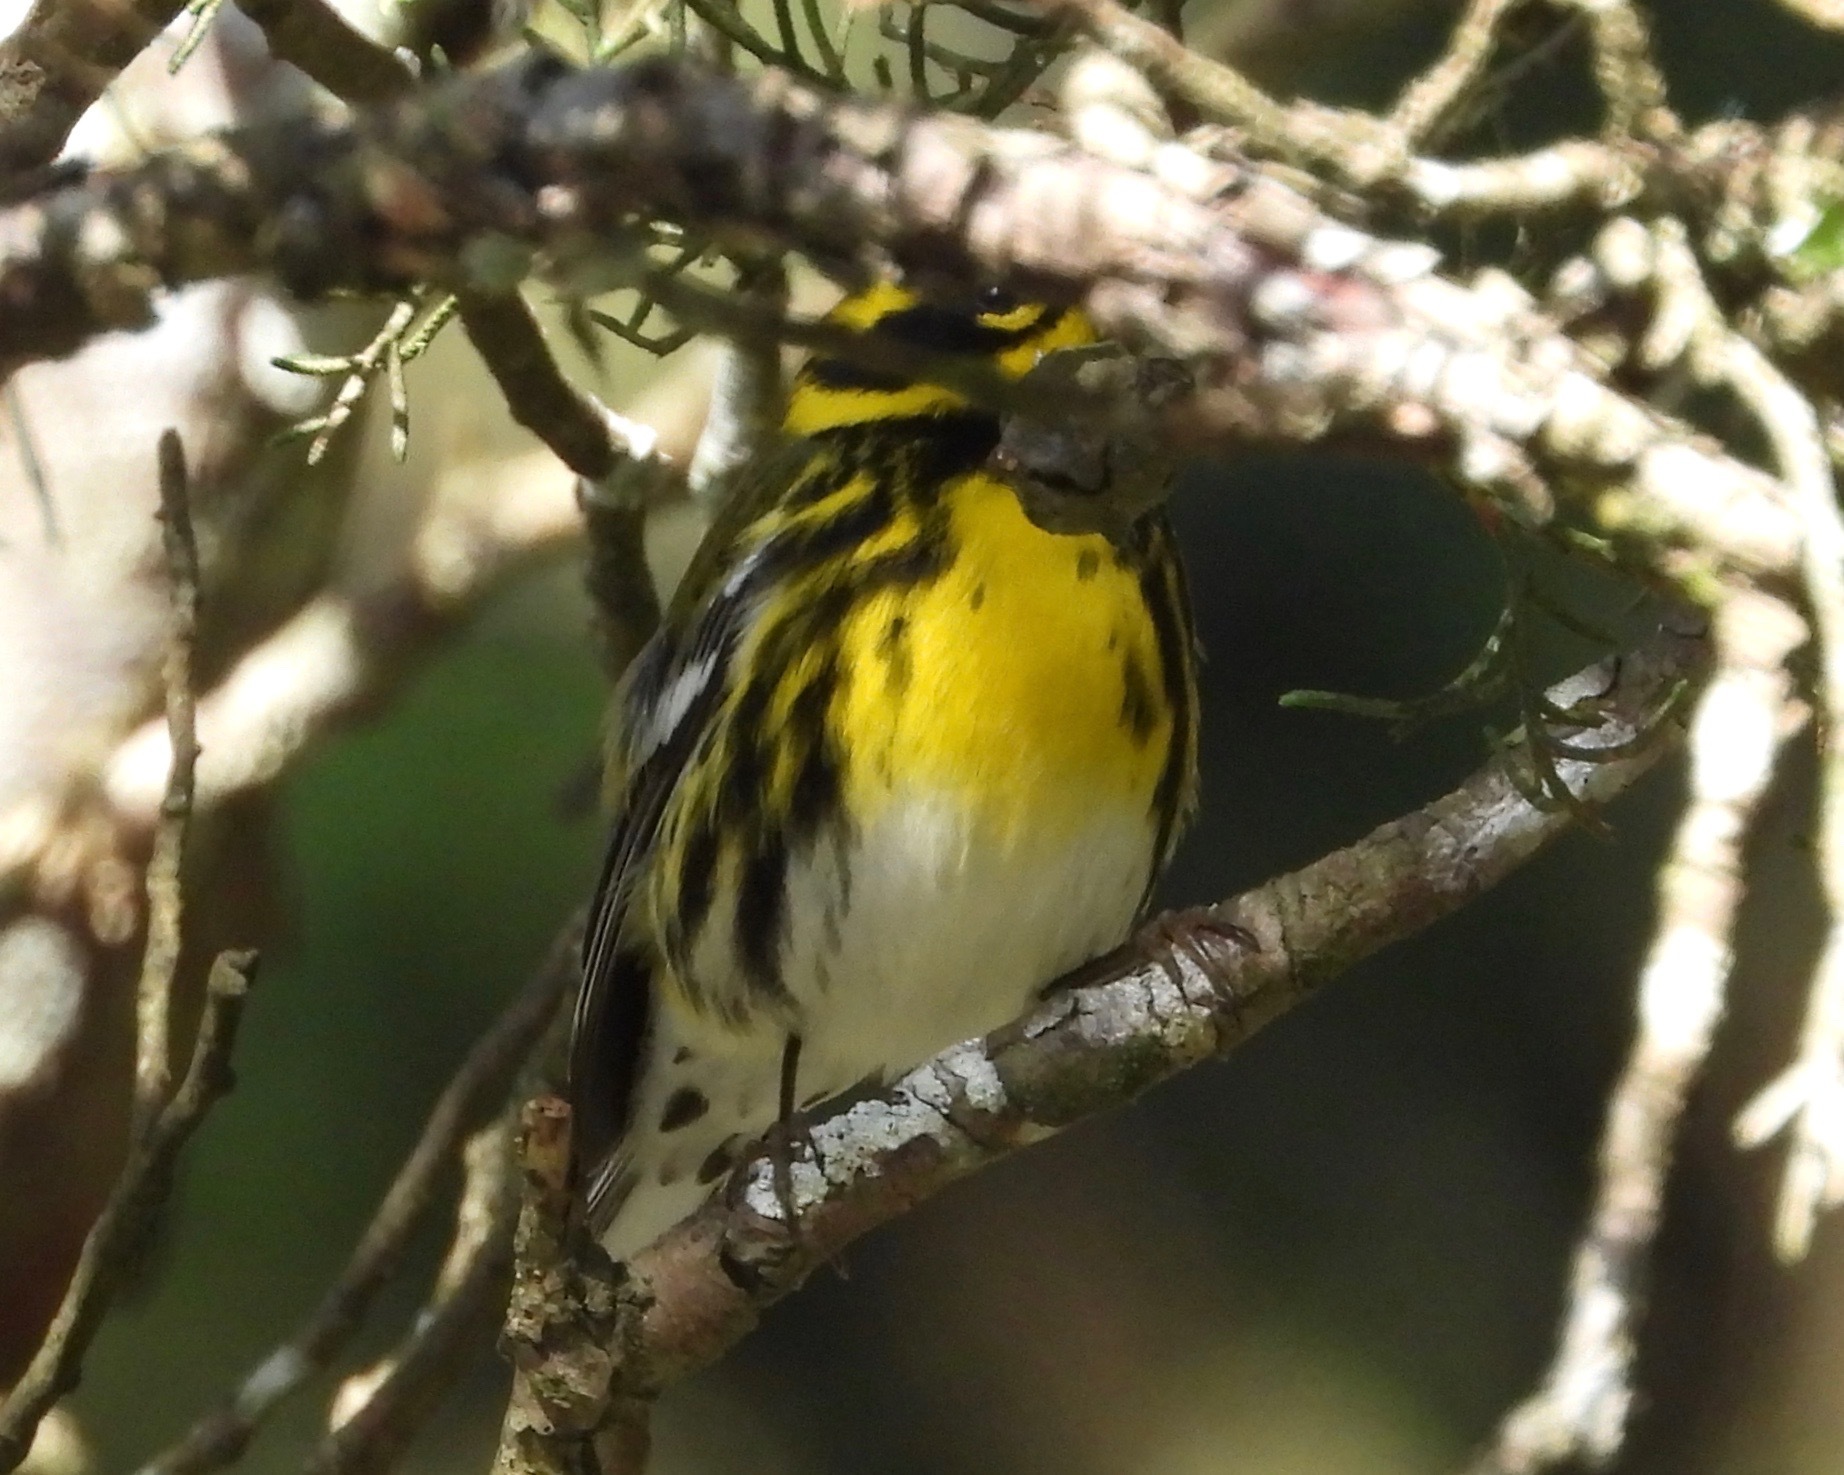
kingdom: Animalia
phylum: Chordata
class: Aves
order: Passeriformes
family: Parulidae
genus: Setophaga
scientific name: Setophaga townsendi
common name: Townsend's warbler
